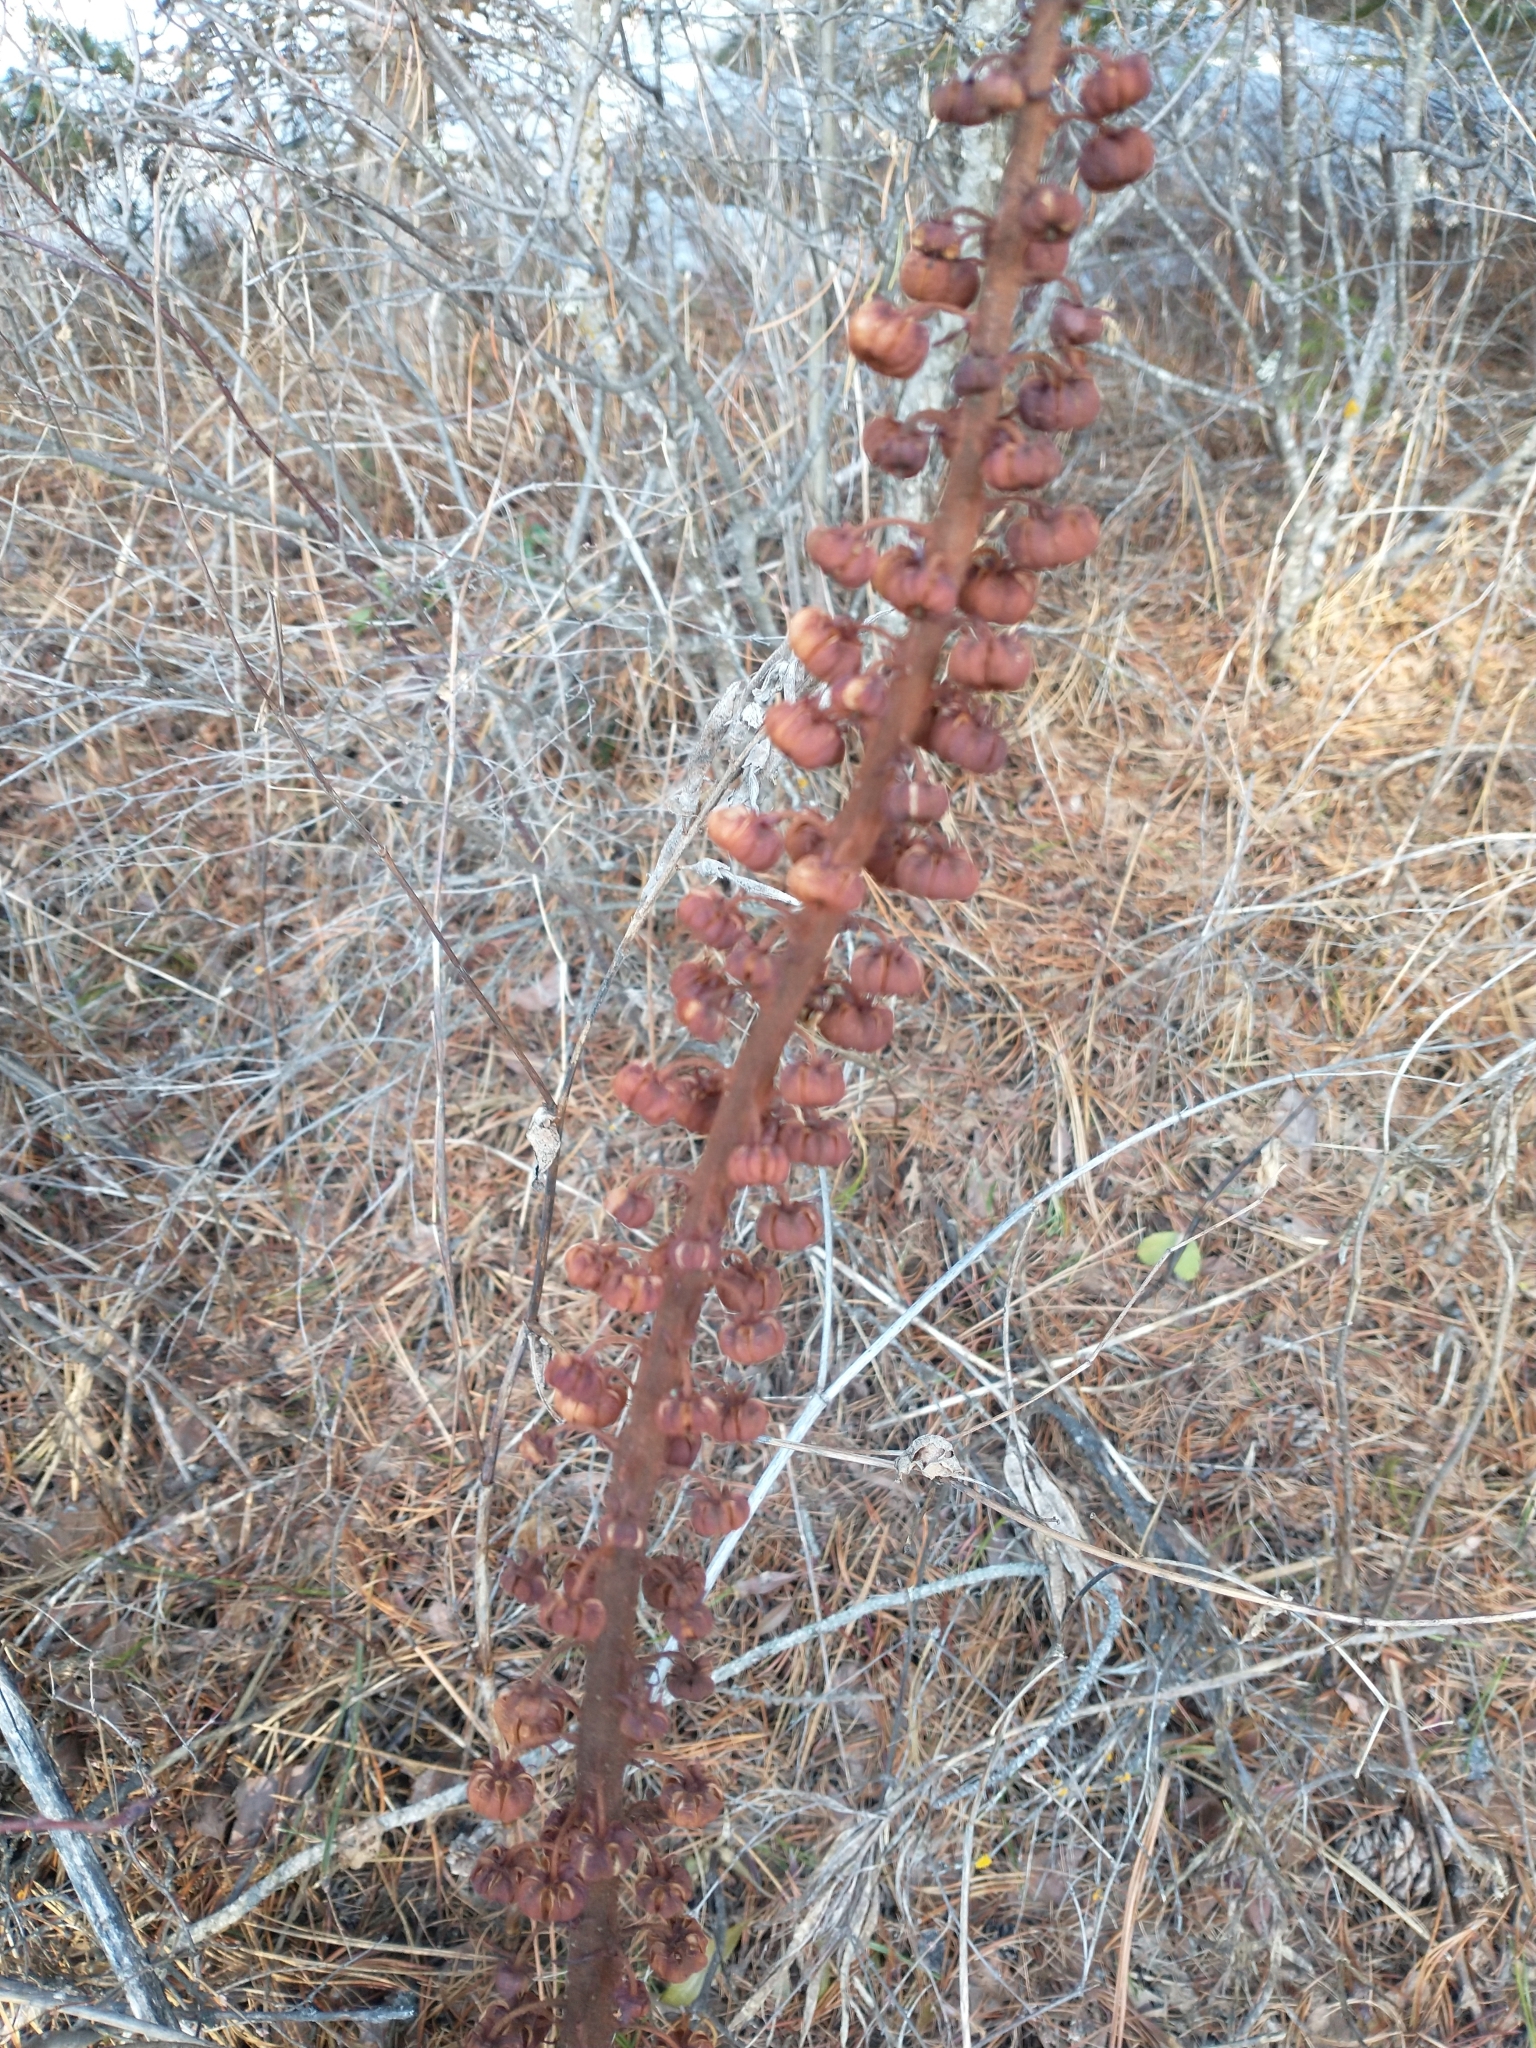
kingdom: Plantae
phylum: Tracheophyta
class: Magnoliopsida
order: Ericales
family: Ericaceae
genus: Pterospora
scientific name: Pterospora andromedea
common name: Giant bird's-nest
